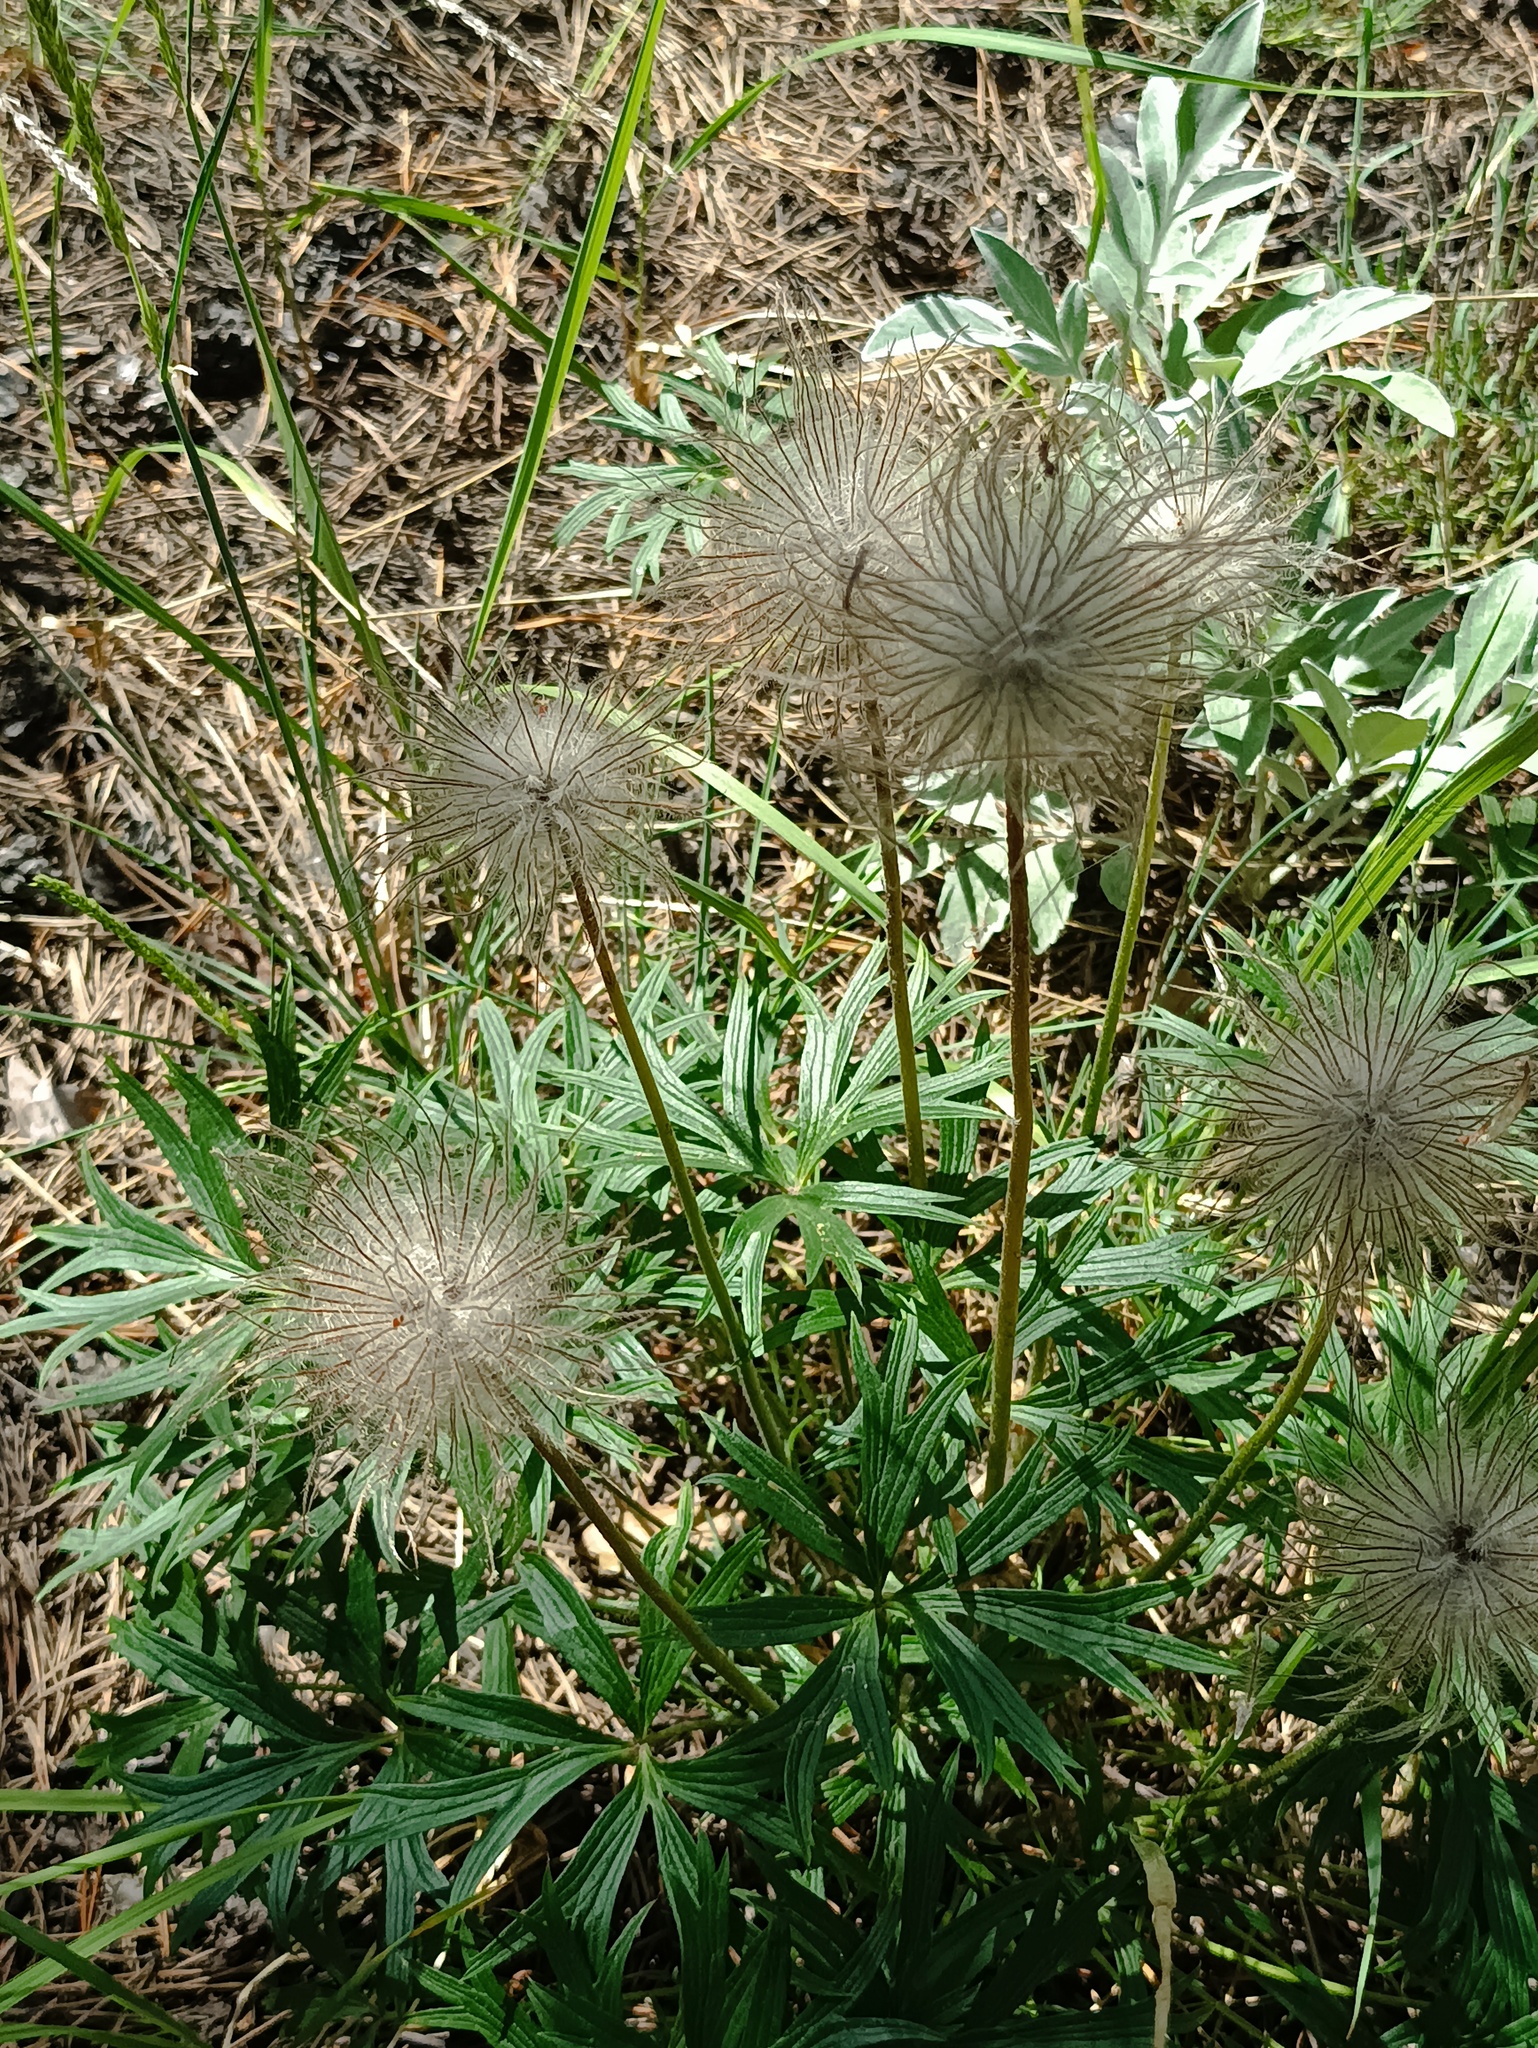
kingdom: Plantae
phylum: Tracheophyta
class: Magnoliopsida
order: Ranunculales
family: Ranunculaceae
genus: Pulsatilla
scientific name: Pulsatilla patens
